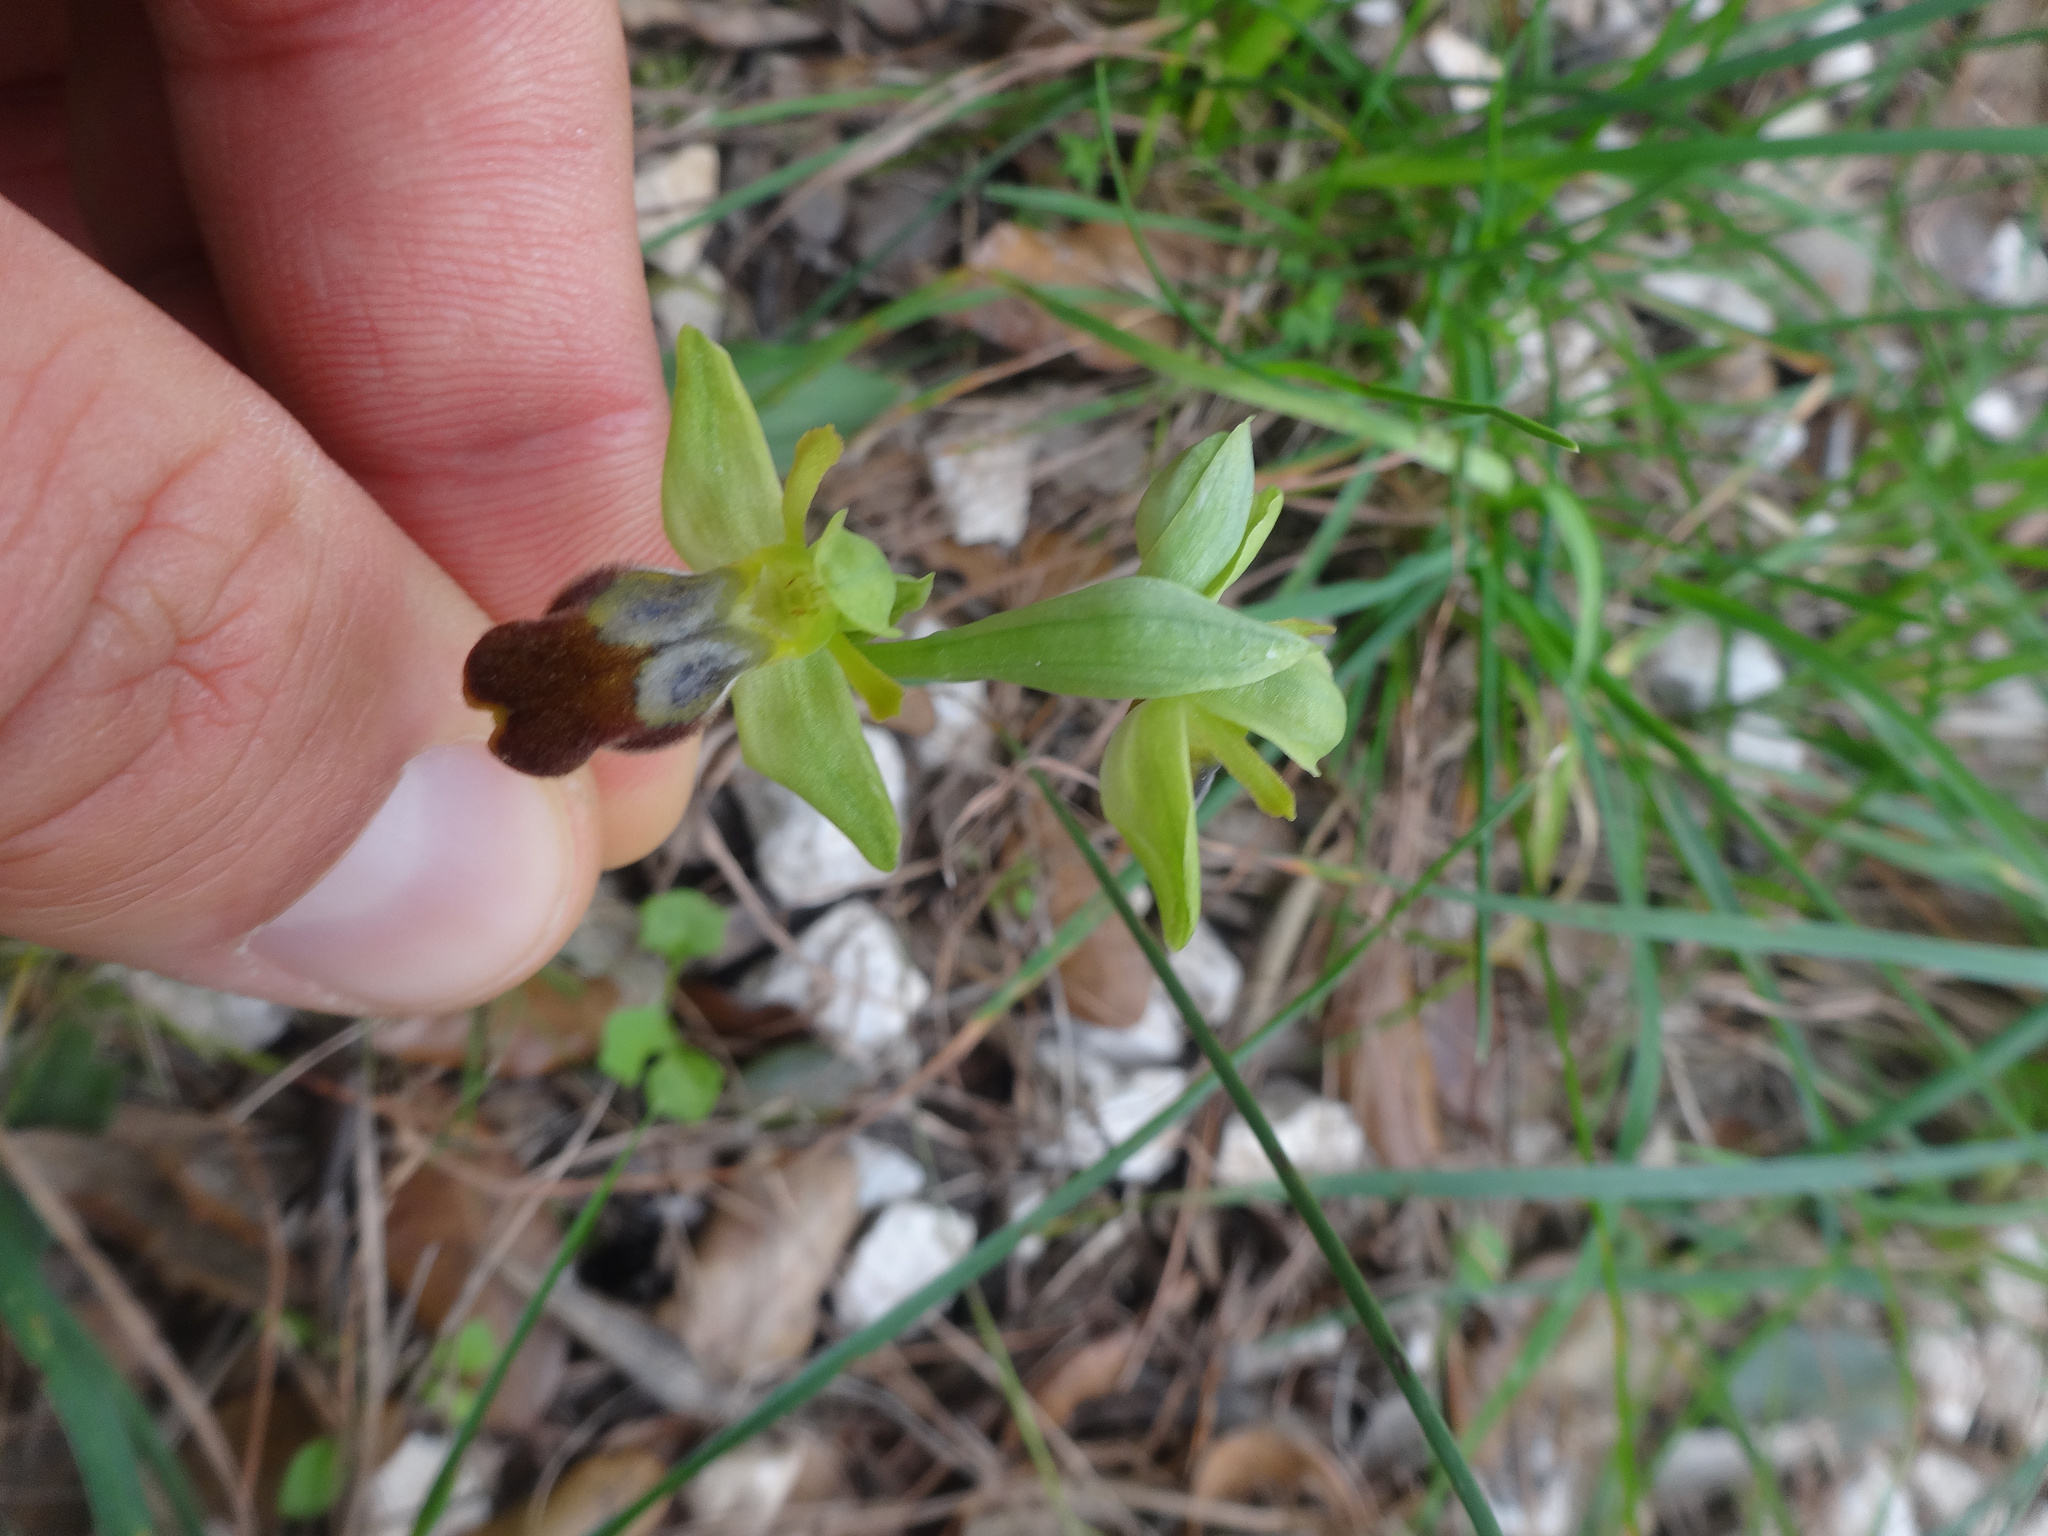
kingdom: Plantae
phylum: Tracheophyta
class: Liliopsida
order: Asparagales
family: Orchidaceae
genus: Ophrys
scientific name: Ophrys fusca
